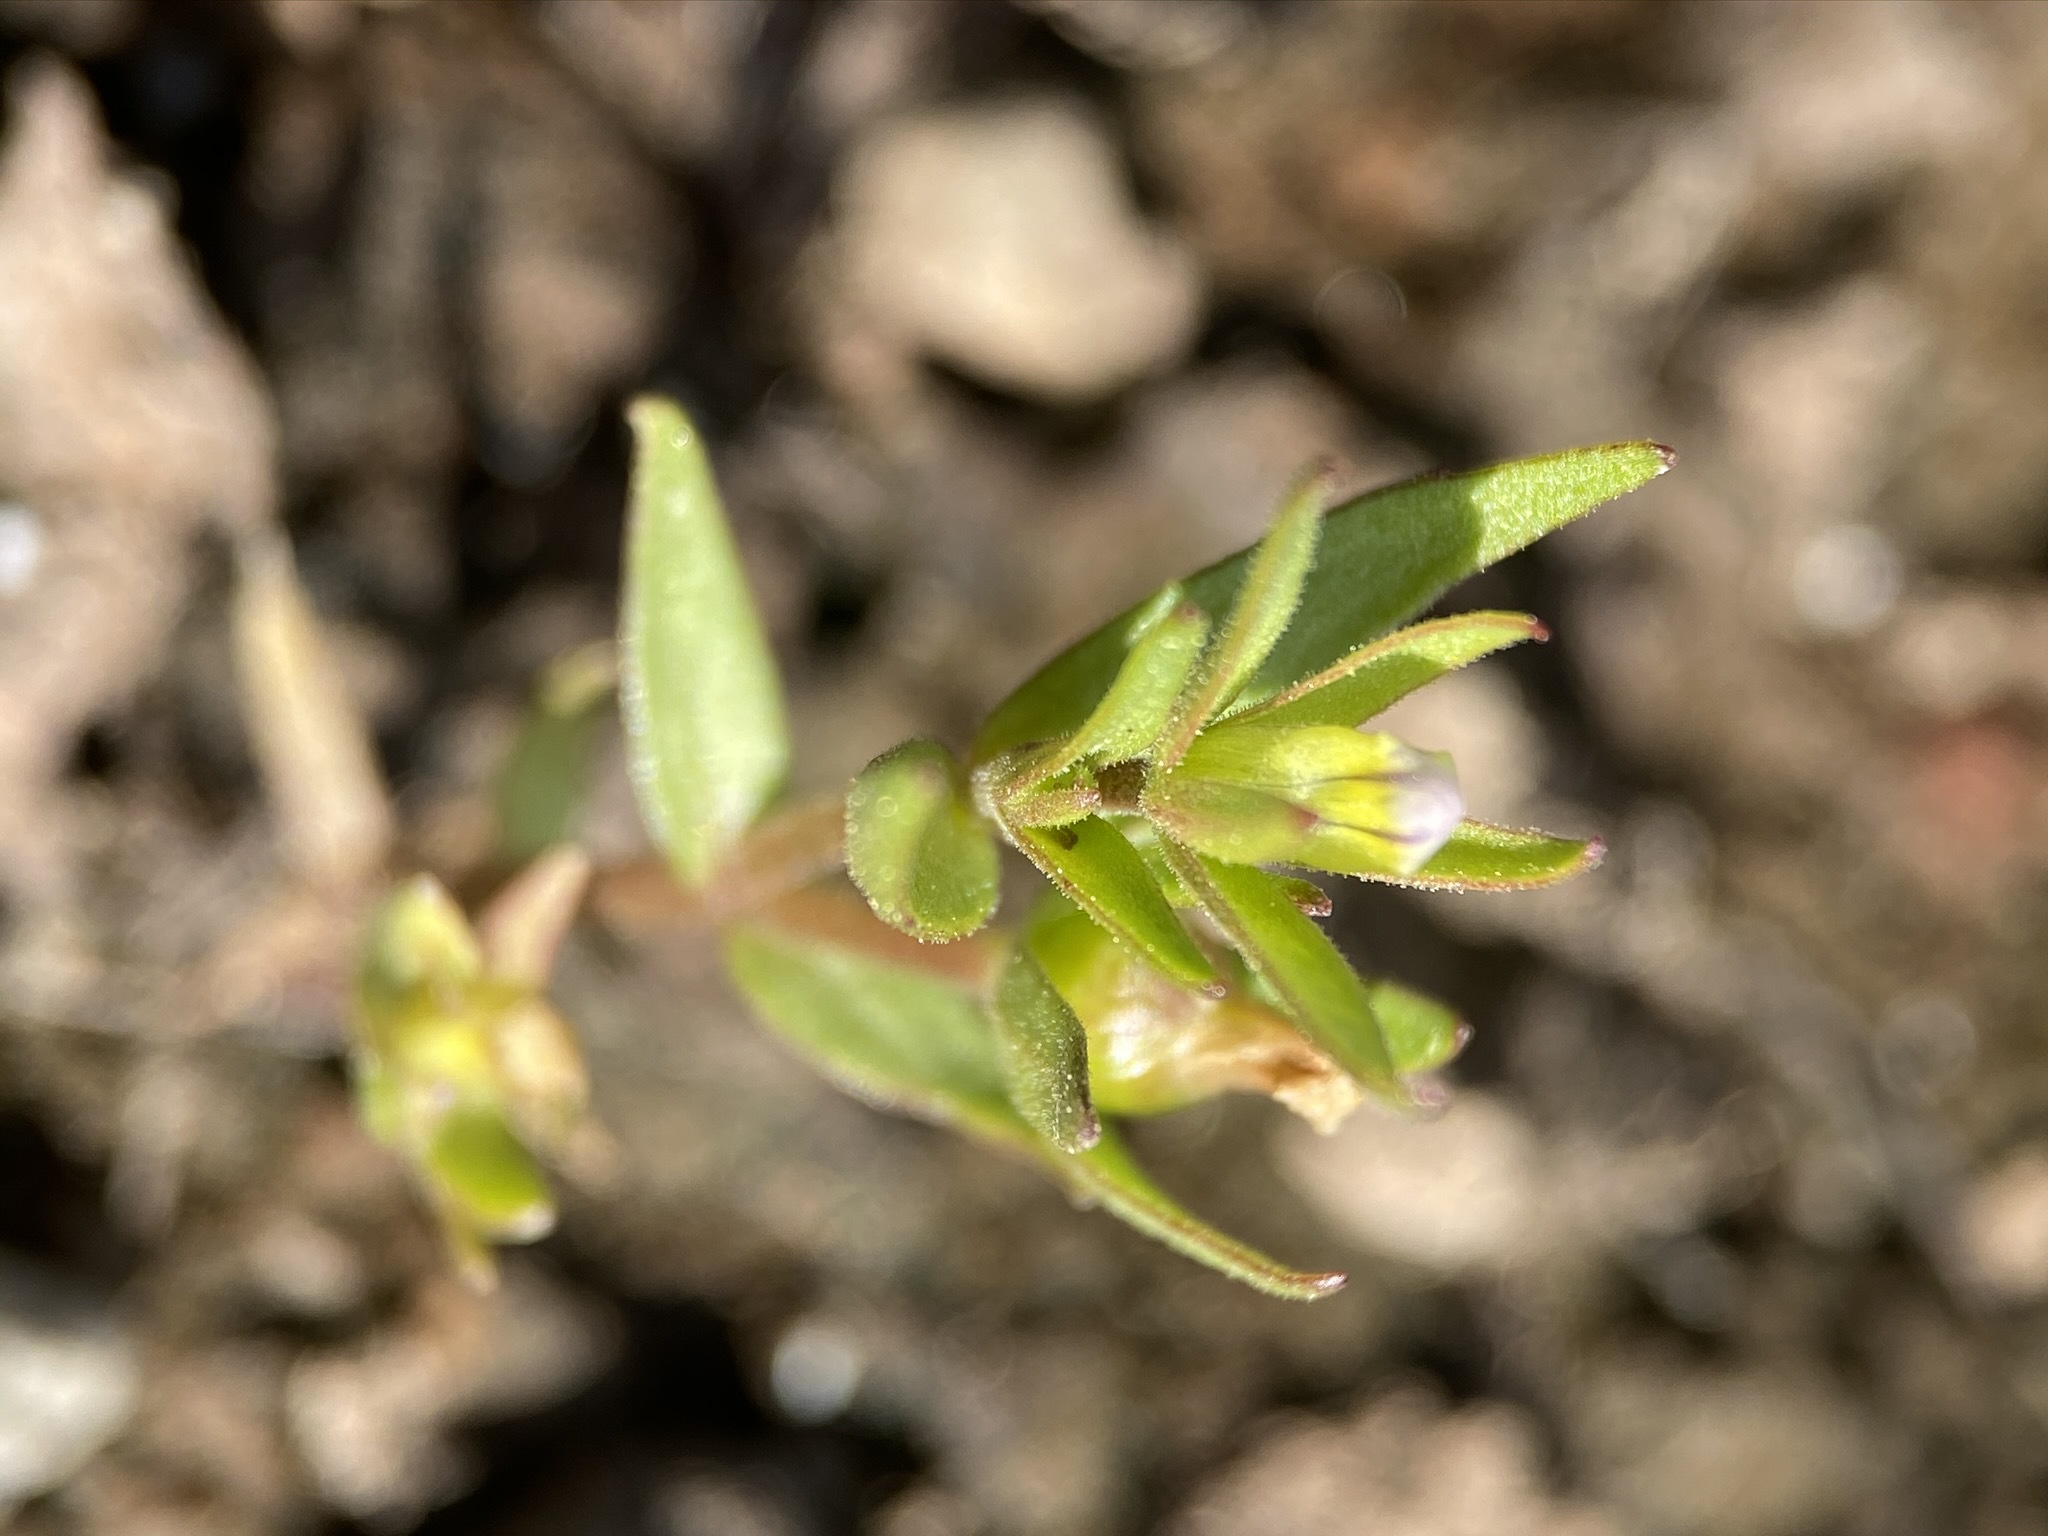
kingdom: Plantae
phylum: Tracheophyta
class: Magnoliopsida
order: Lamiales
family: Plantaginaceae
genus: Gratiola
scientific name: Gratiola ebracteata
